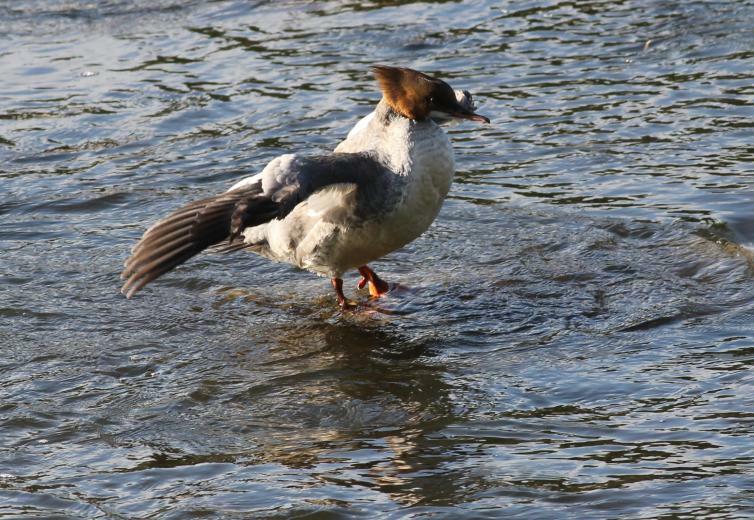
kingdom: Animalia
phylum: Chordata
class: Aves
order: Anseriformes
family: Anatidae
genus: Mergus
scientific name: Mergus merganser
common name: Common merganser
